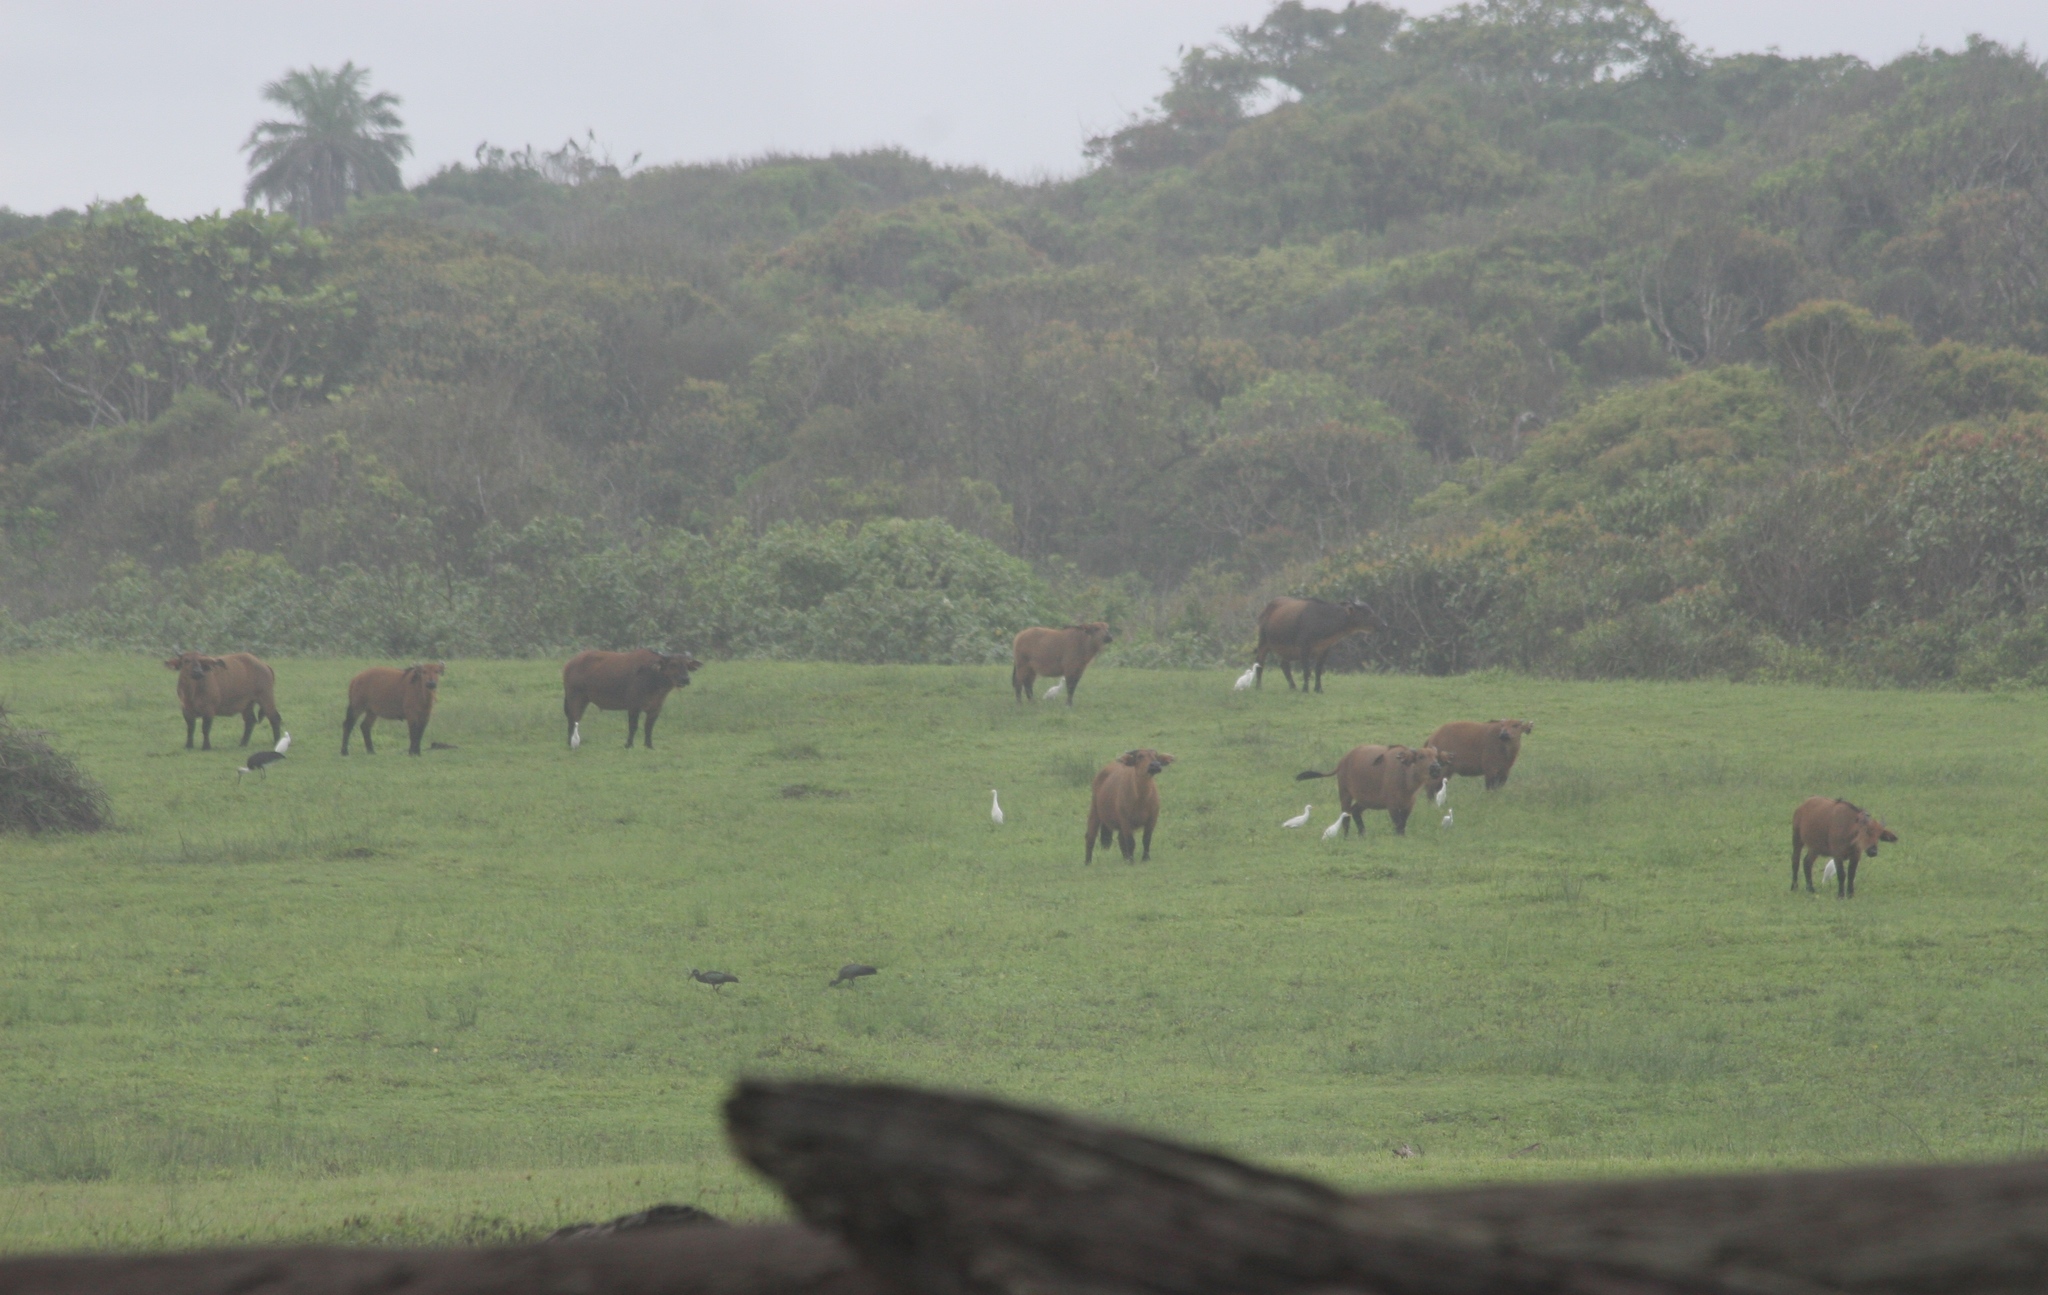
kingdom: Animalia
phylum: Chordata
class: Mammalia
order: Artiodactyla
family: Bovidae
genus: Syncerus
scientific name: Syncerus caffer
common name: African buffalo
